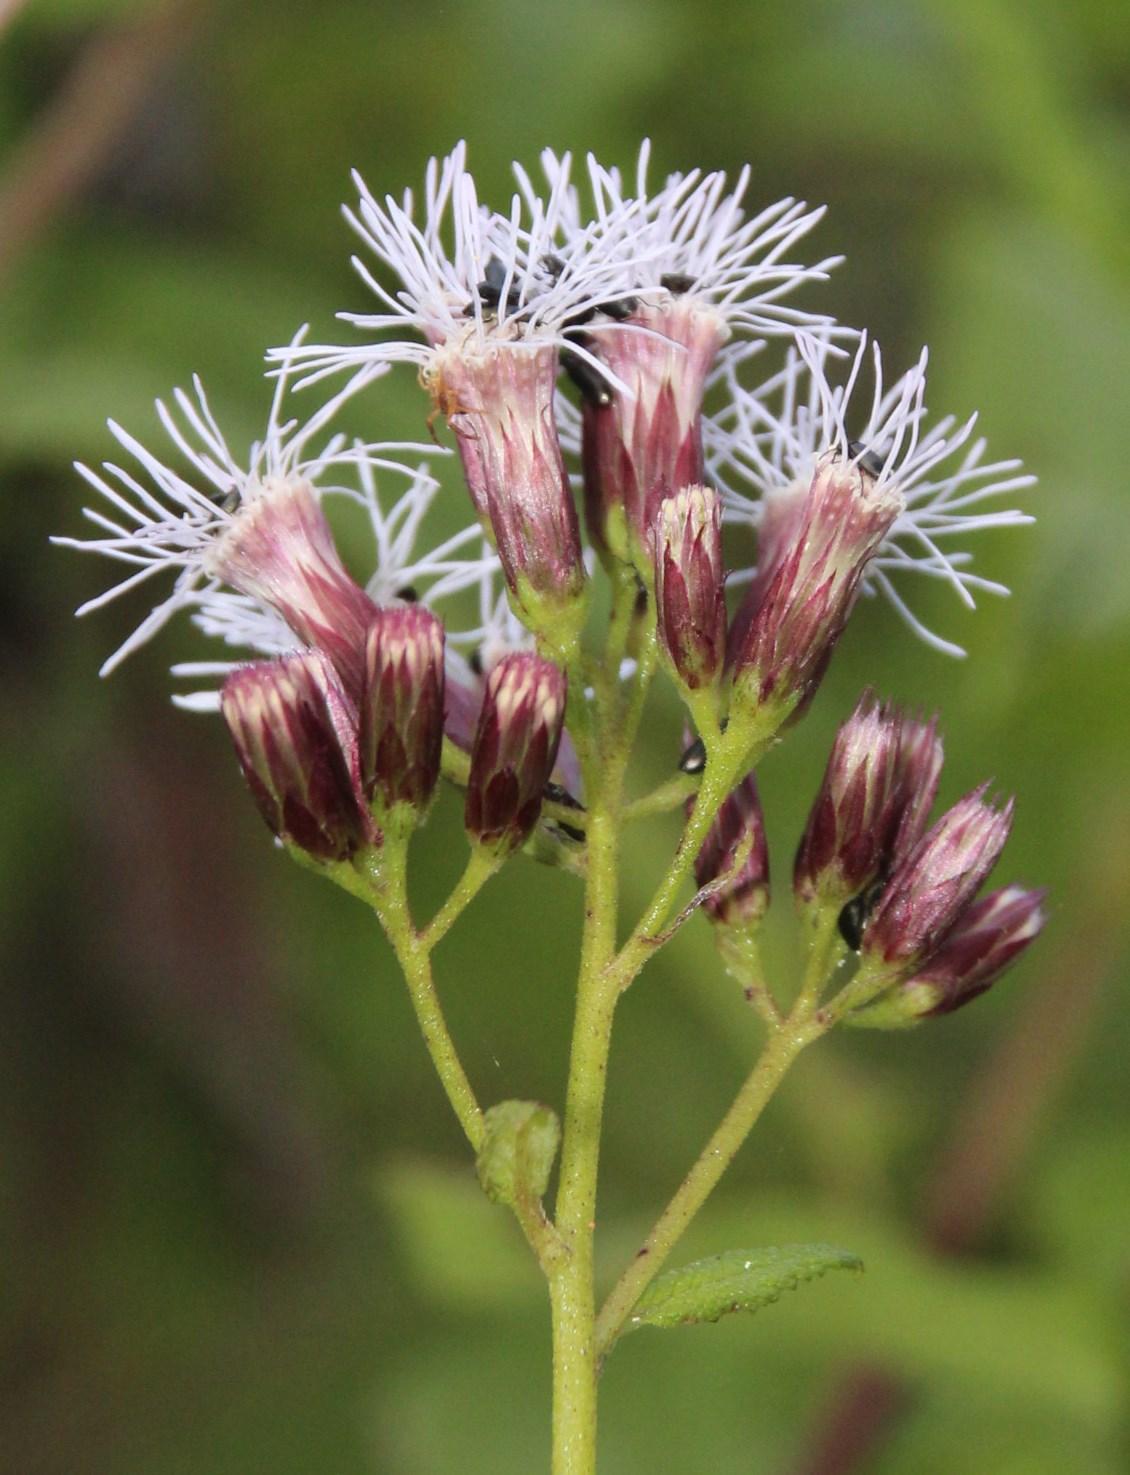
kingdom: Plantae
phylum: Tracheophyta
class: Magnoliopsida
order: Asterales
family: Asteraceae
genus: Aristeguietia
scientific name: Aristeguietia salvia
